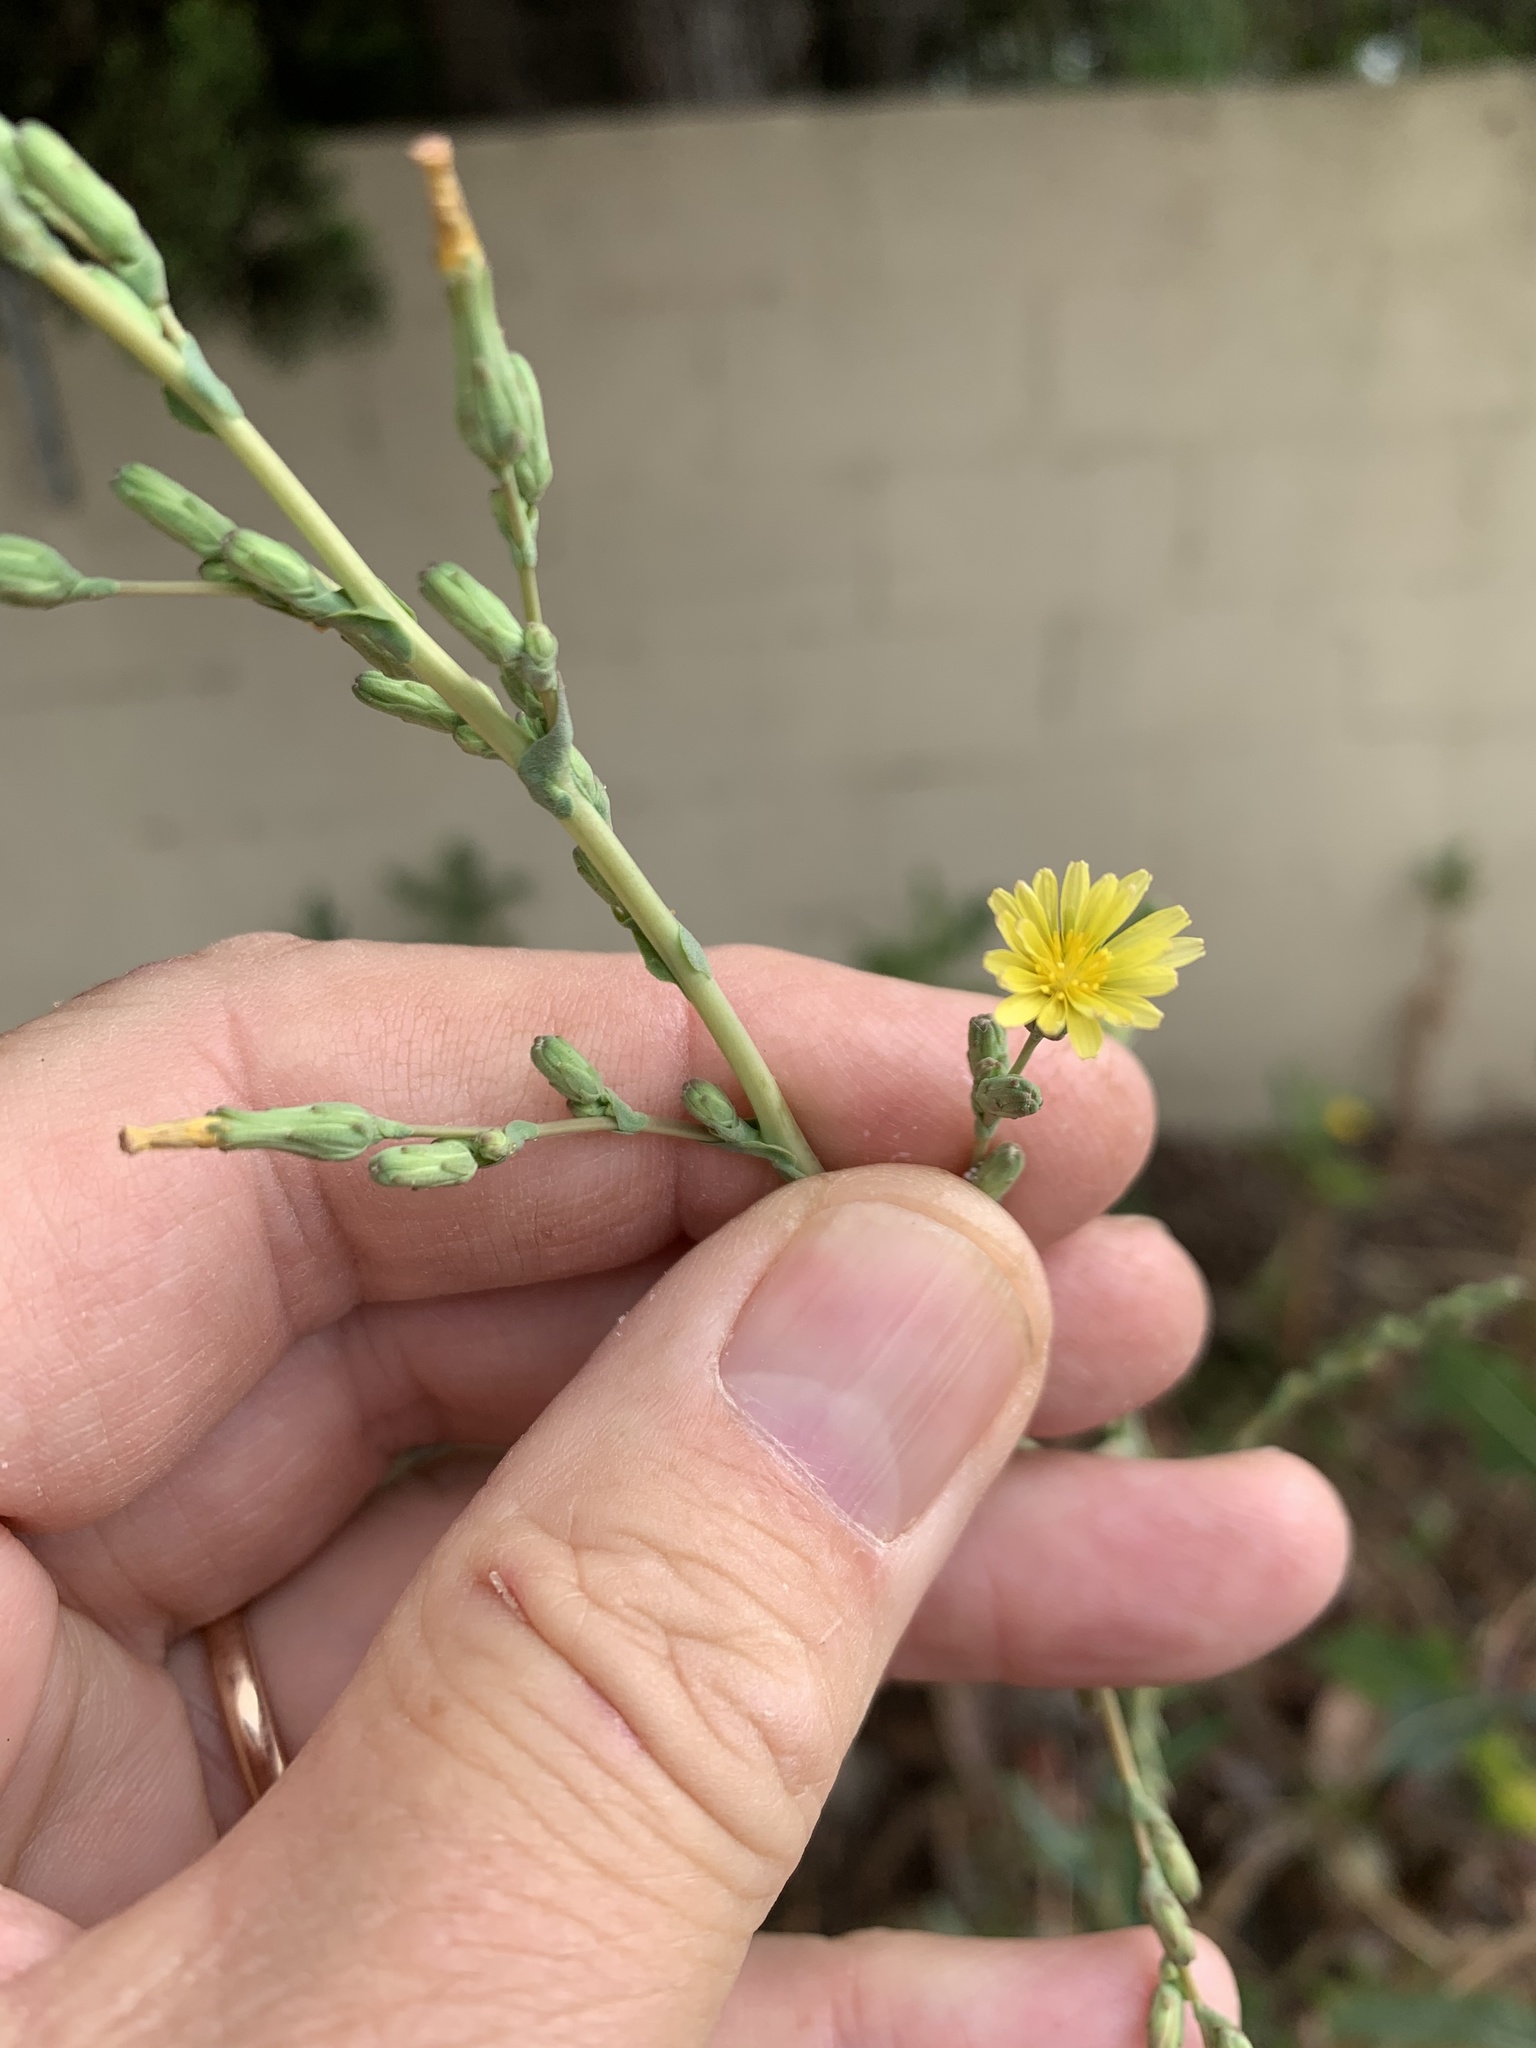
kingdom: Plantae
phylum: Tracheophyta
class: Magnoliopsida
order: Asterales
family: Asteraceae
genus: Lactuca
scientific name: Lactuca serriola
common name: Prickly lettuce
